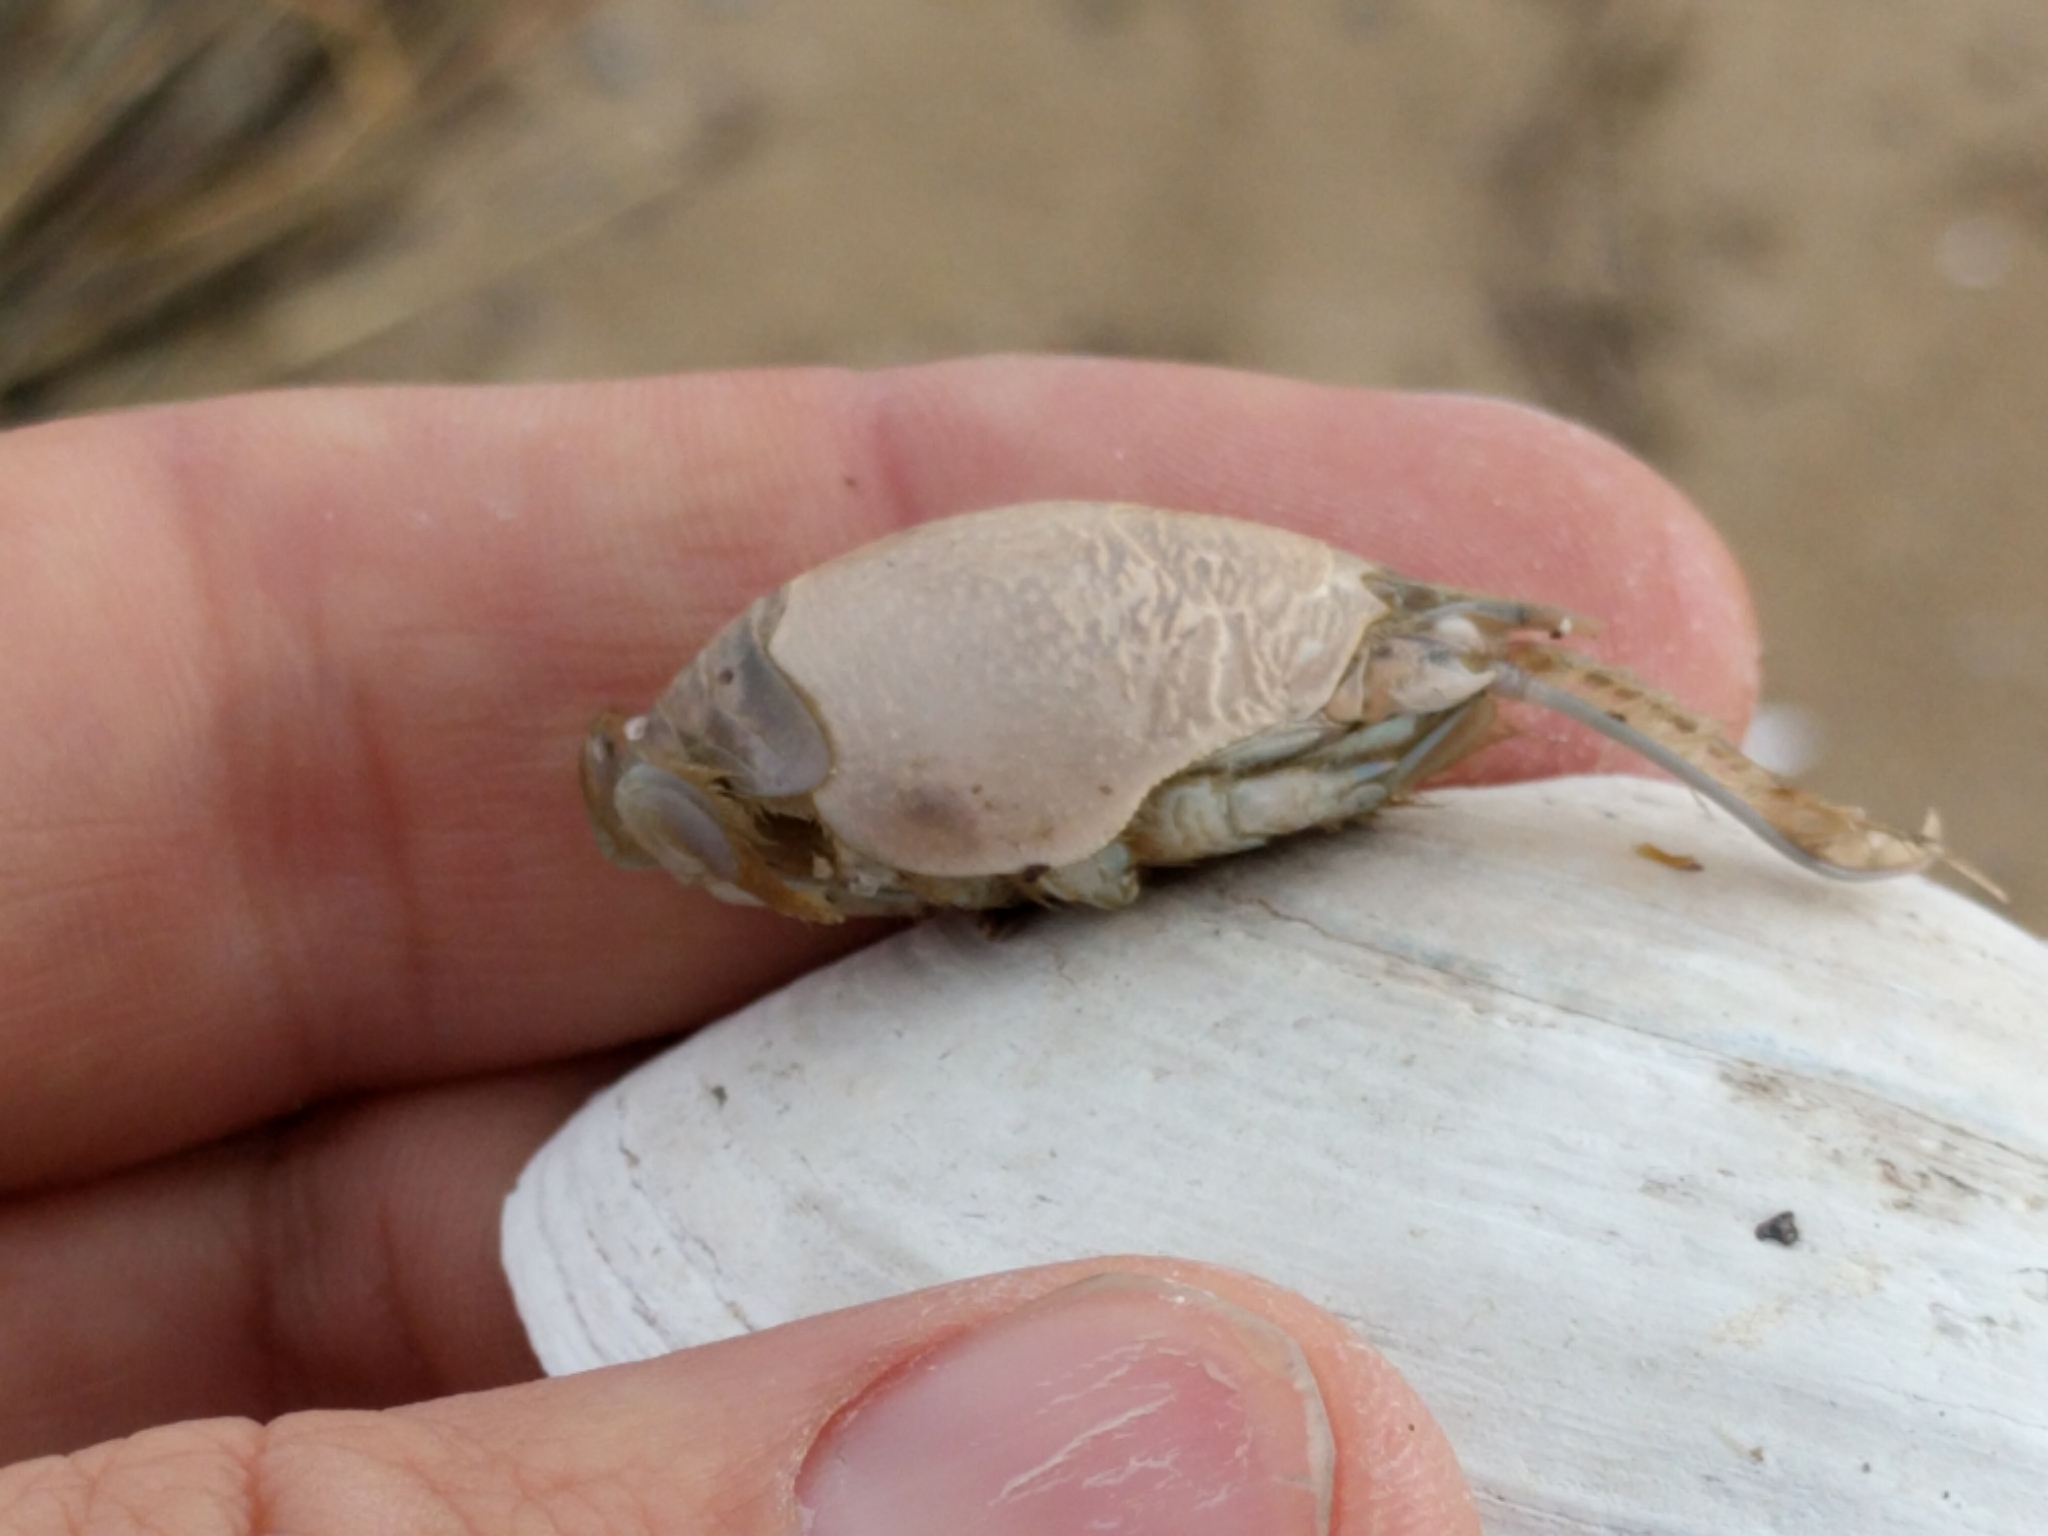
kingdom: Animalia
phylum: Arthropoda
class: Malacostraca
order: Decapoda
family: Hippidae
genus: Emerita
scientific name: Emerita talpoida
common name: Atlantic sand crab
